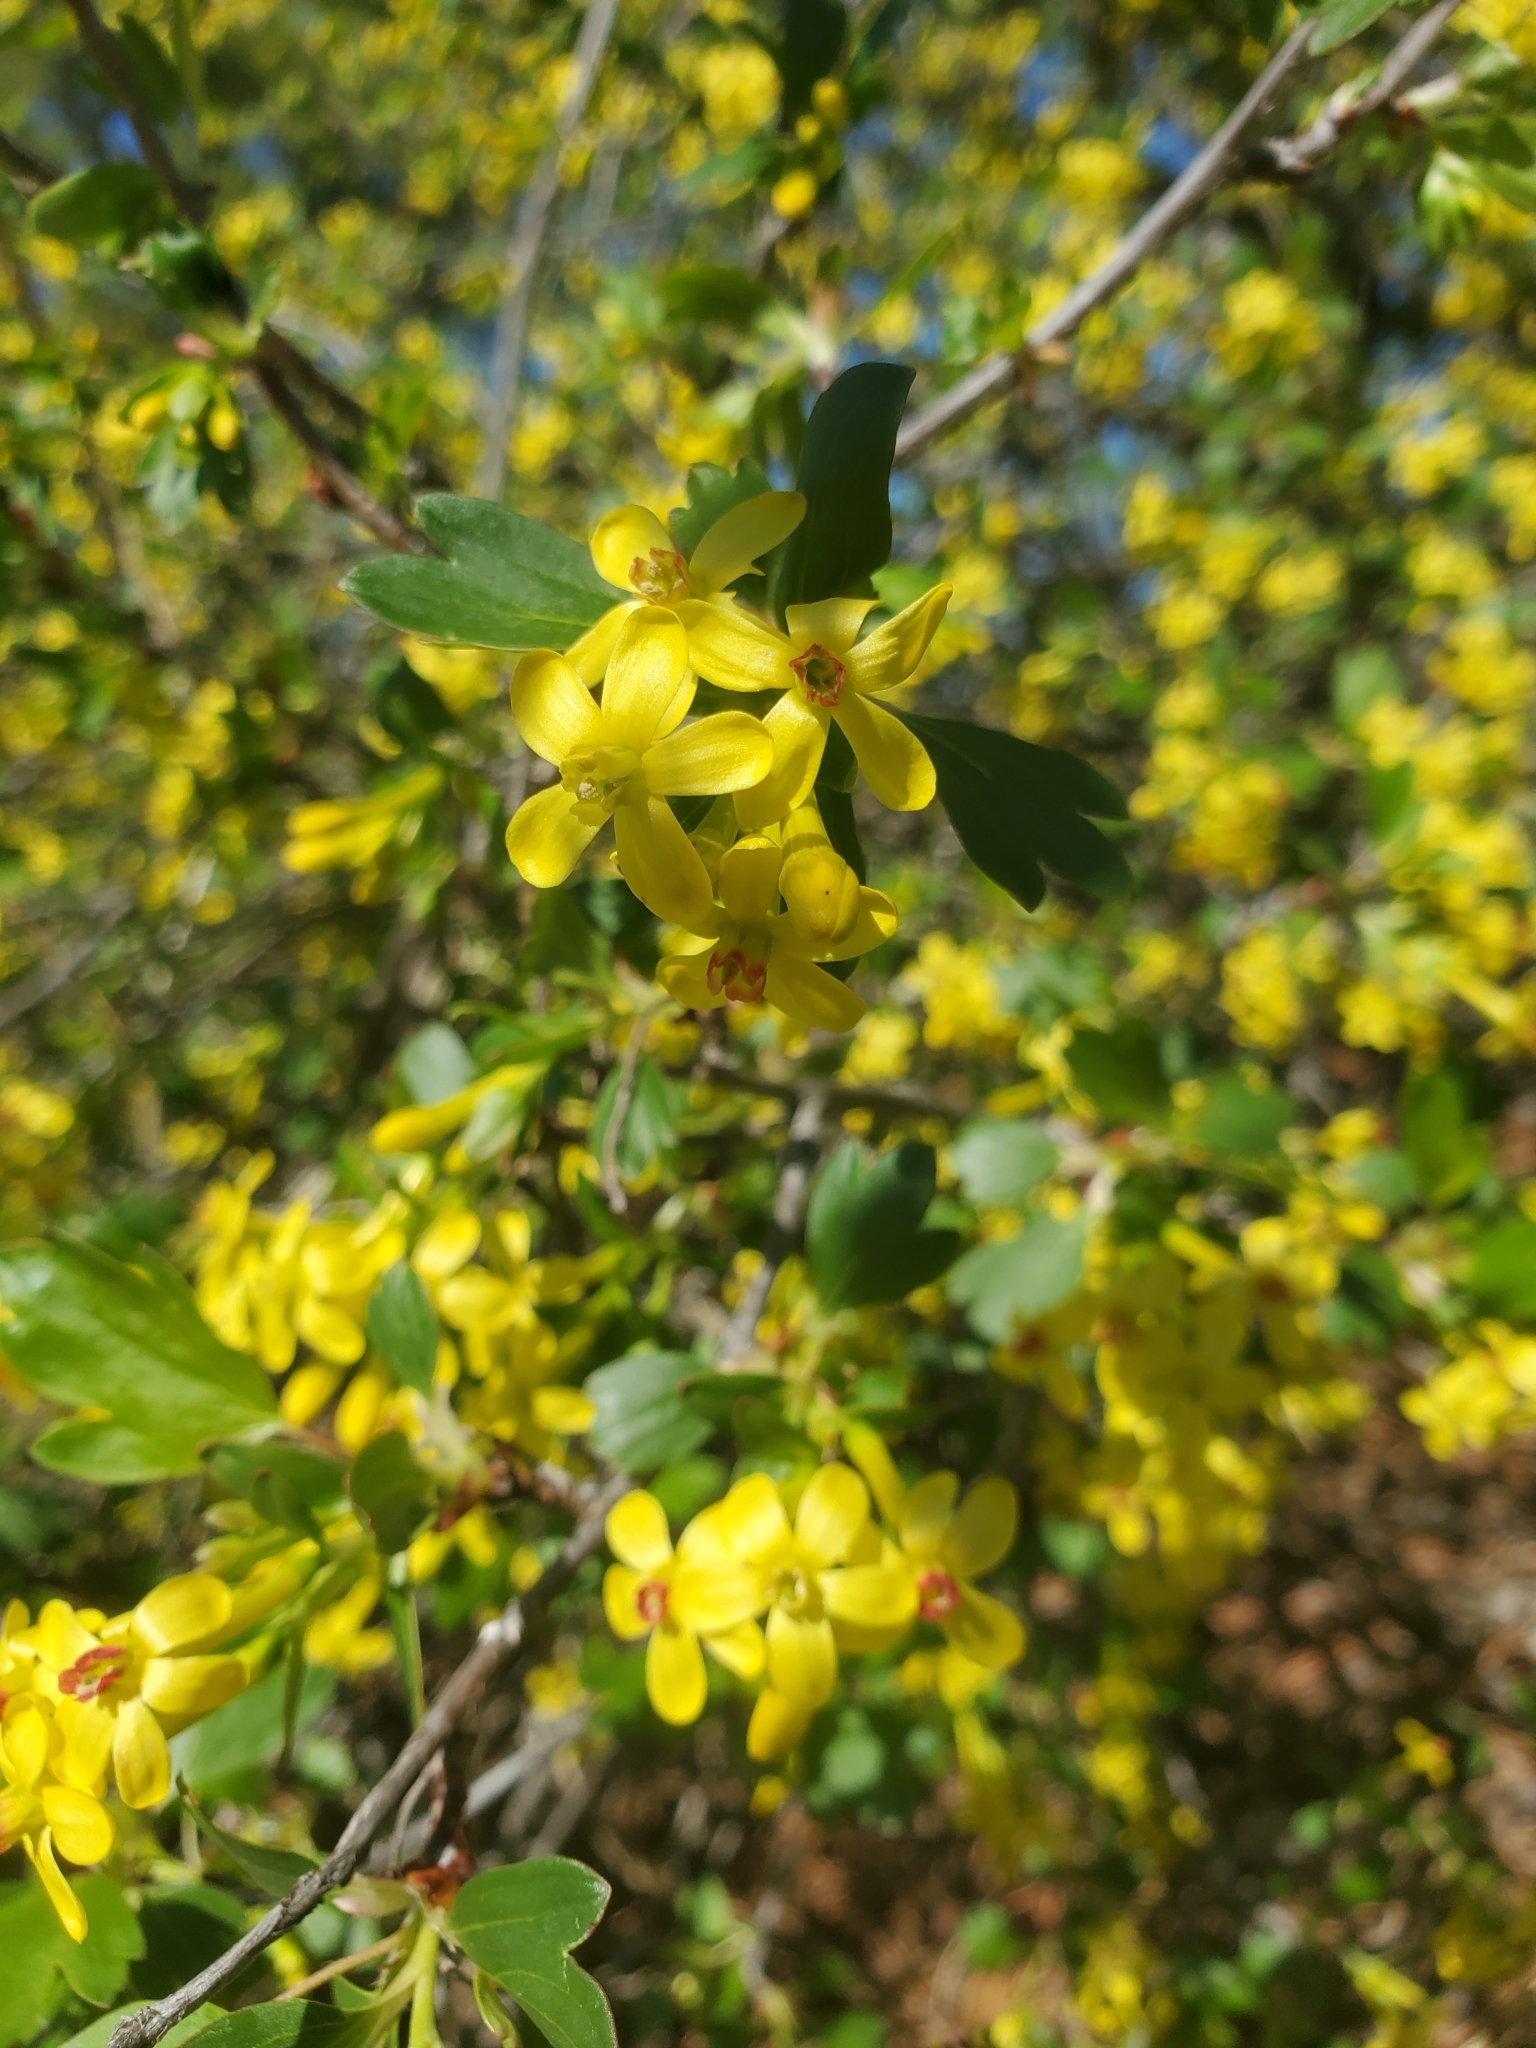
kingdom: Plantae
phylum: Tracheophyta
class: Magnoliopsida
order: Saxifragales
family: Grossulariaceae
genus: Ribes
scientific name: Ribes aureum
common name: Golden currant
